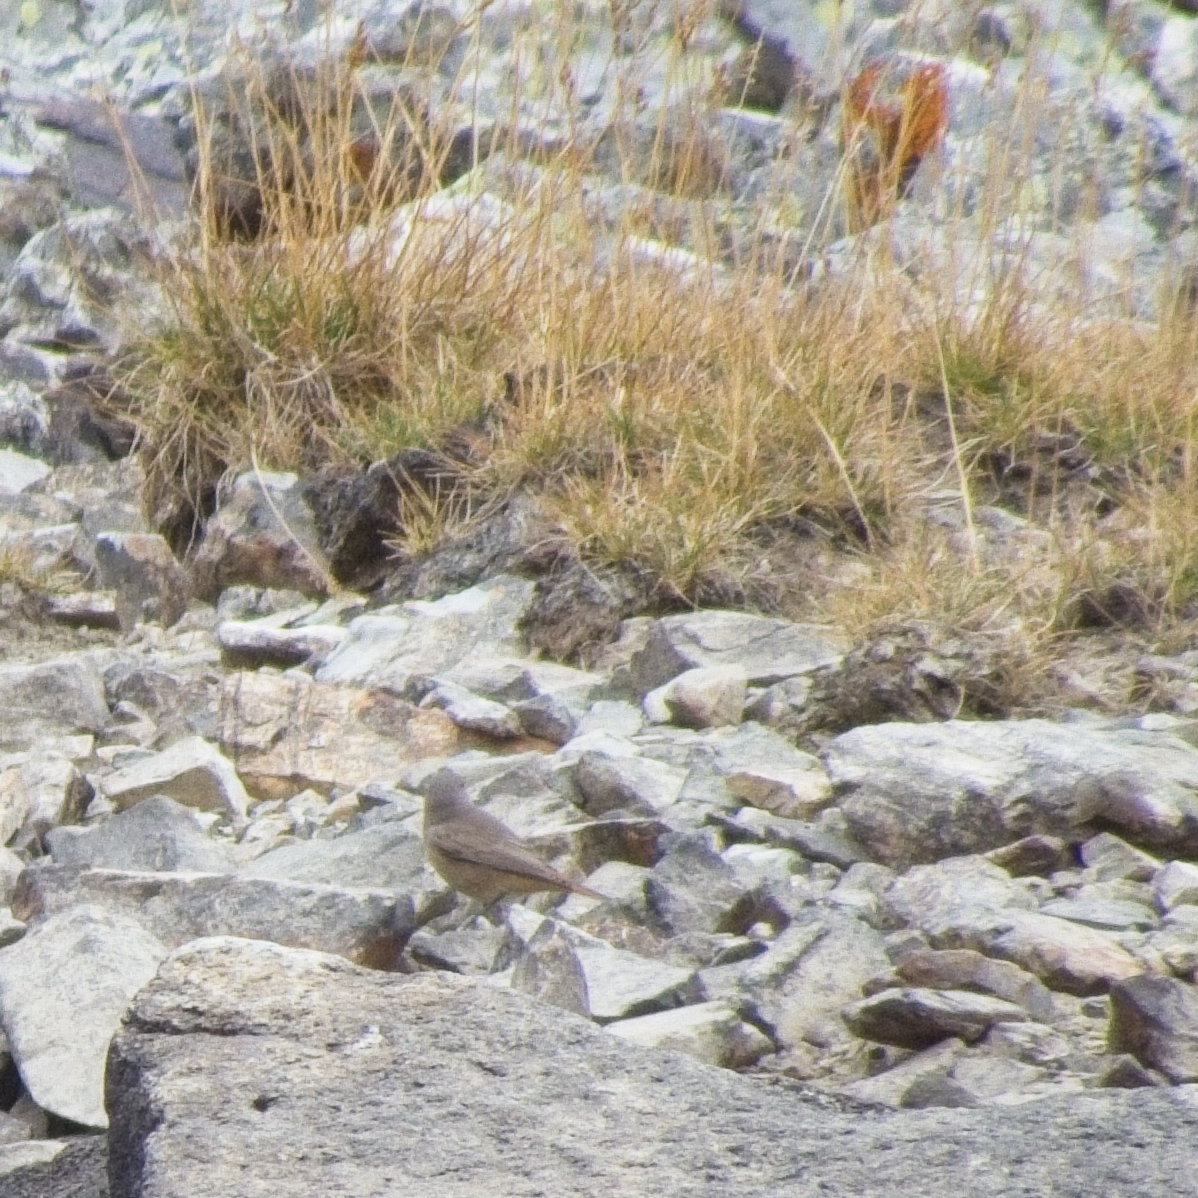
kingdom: Animalia
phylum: Chordata
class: Aves
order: Passeriformes
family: Muscicapidae
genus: Phoenicurus
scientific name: Phoenicurus ochruros
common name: Black redstart
